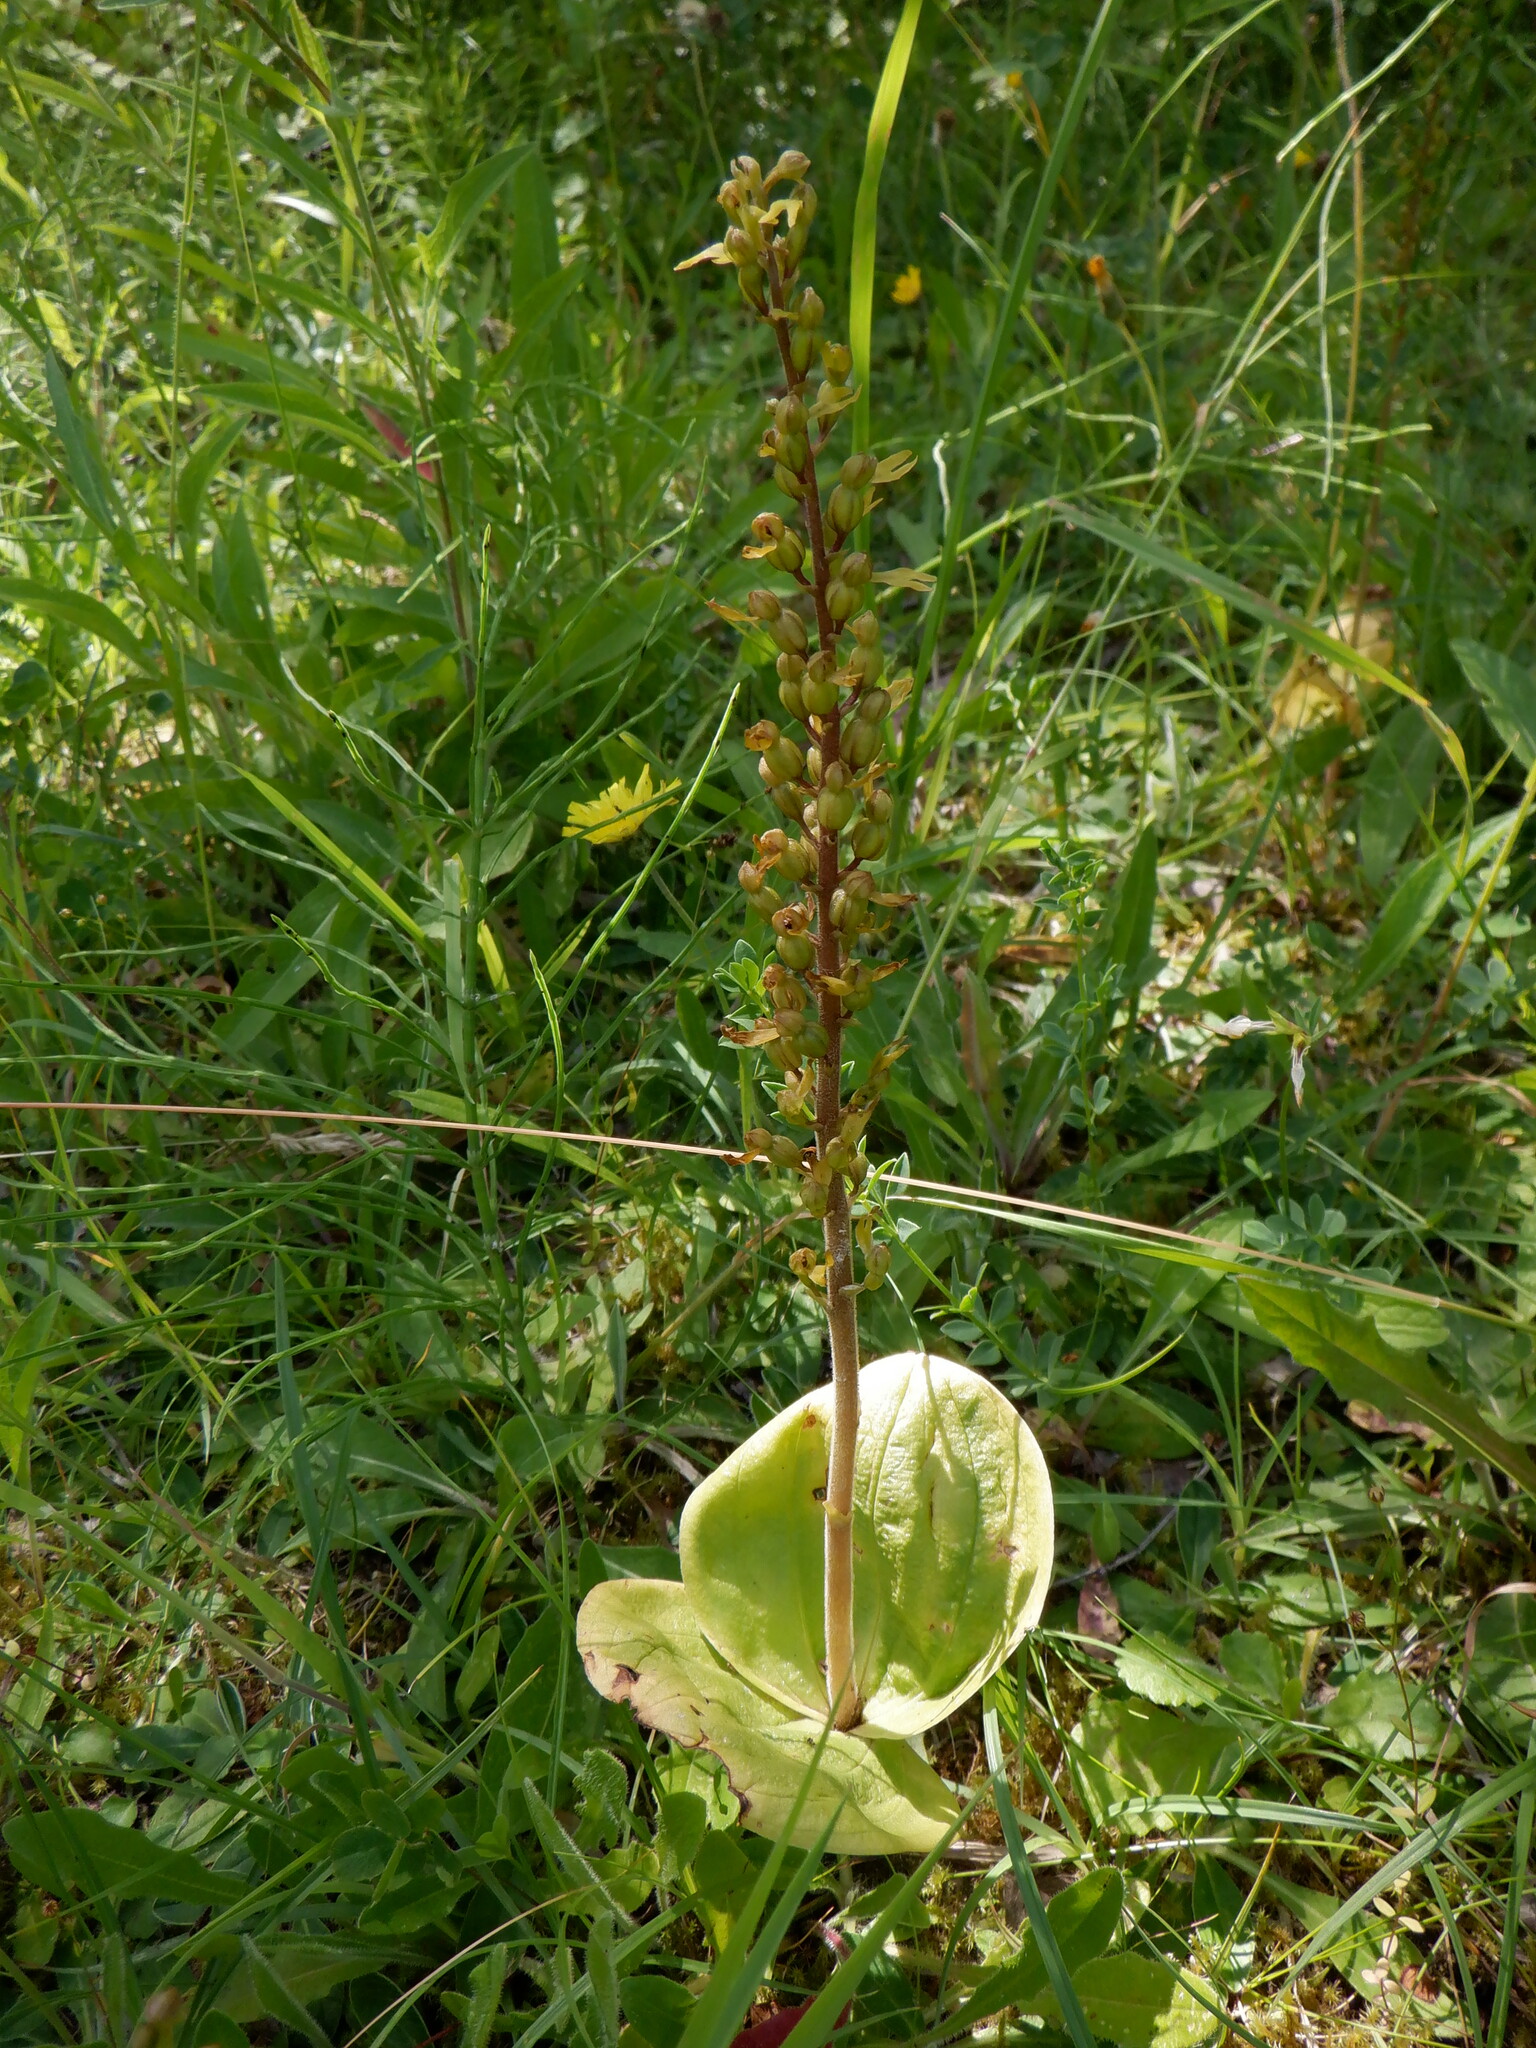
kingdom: Plantae
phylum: Tracheophyta
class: Liliopsida
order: Asparagales
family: Orchidaceae
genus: Neottia
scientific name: Neottia ovata
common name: Common twayblade
